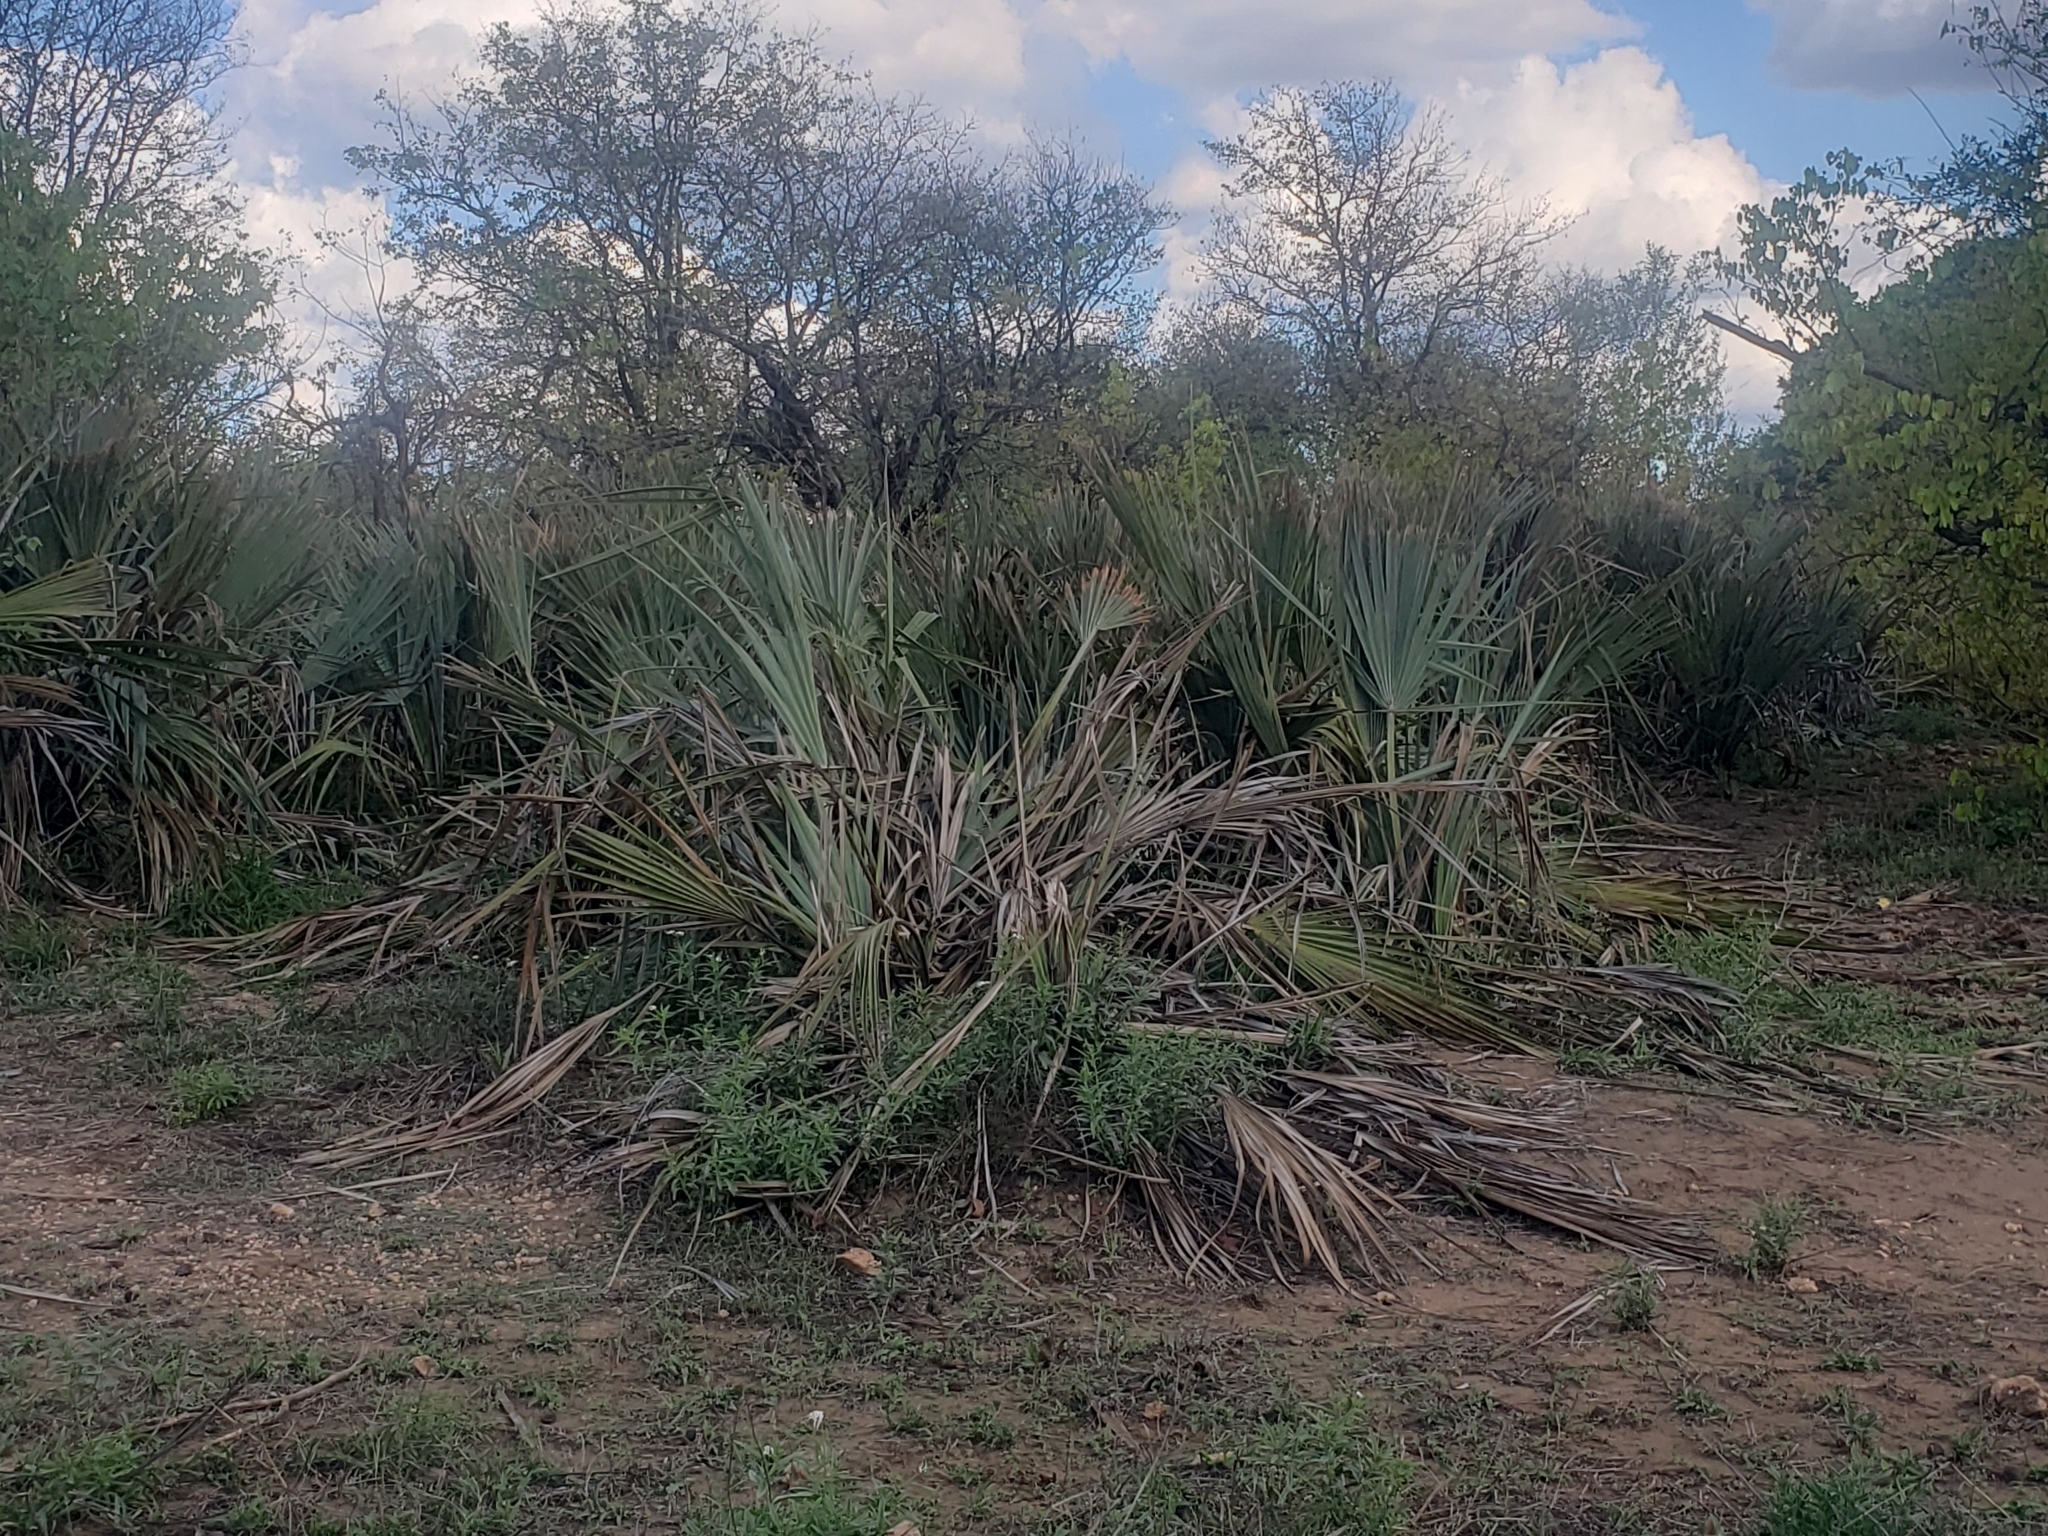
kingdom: Plantae
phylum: Tracheophyta
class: Liliopsida
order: Arecales
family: Arecaceae
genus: Hyphaene
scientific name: Hyphaene petersiana
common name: African ivory nut palm
